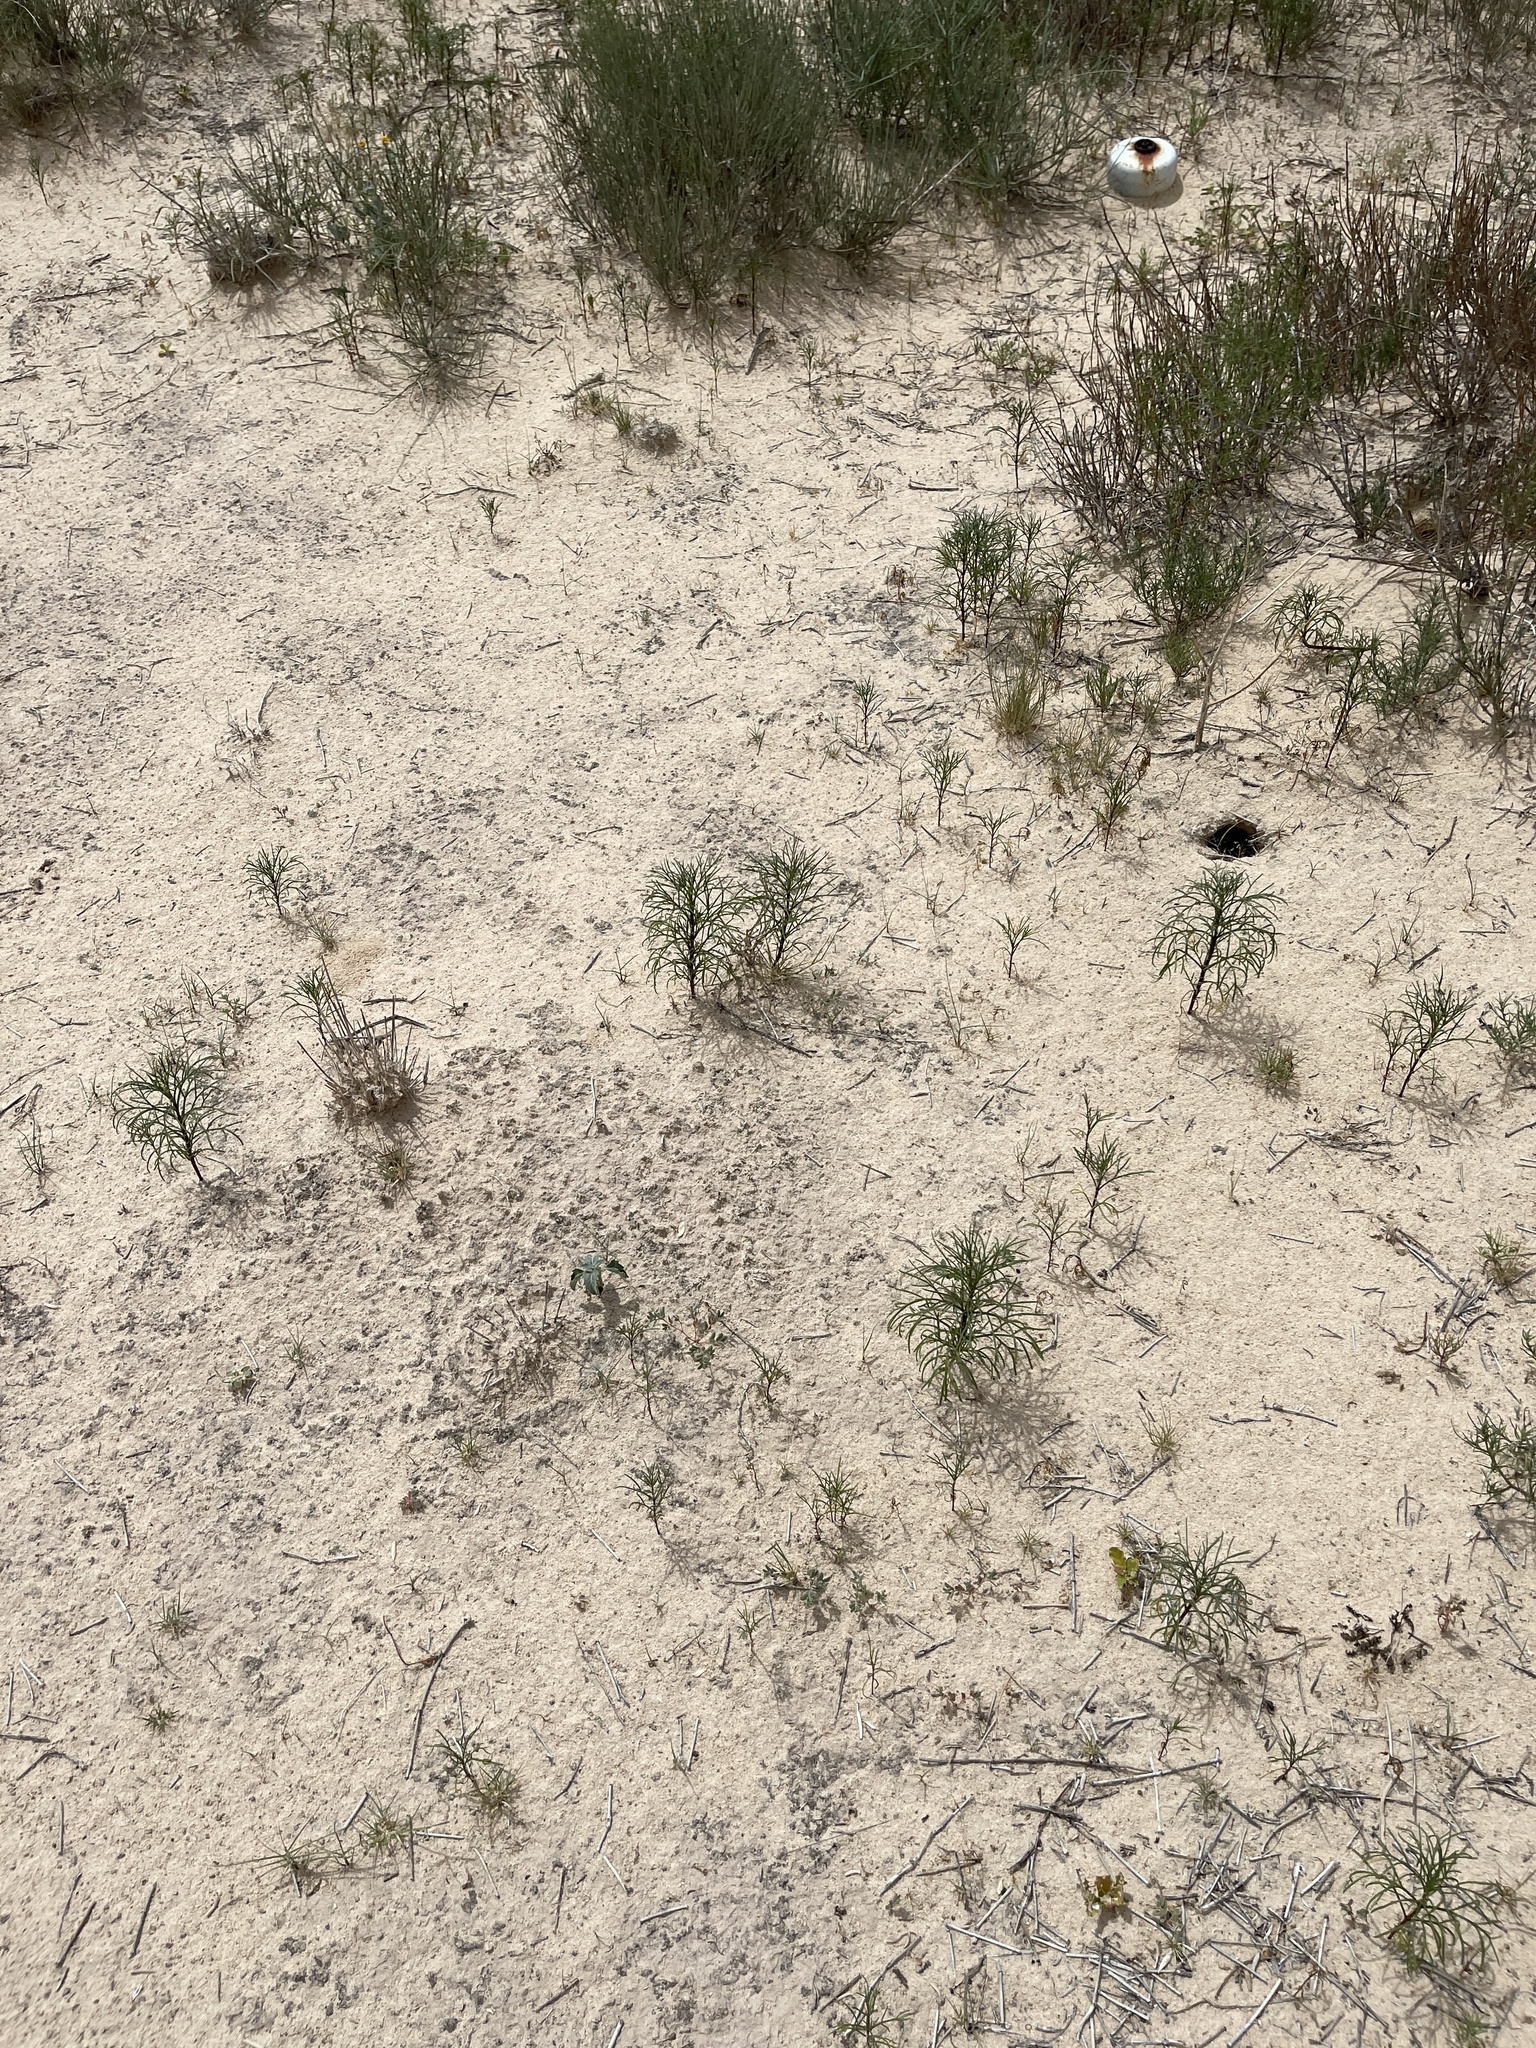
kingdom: Plantae
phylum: Tracheophyta
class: Magnoliopsida
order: Asterales
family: Asteraceae
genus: Dicranocarpus
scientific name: Dicranocarpus parviflorus
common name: Pitchfork
